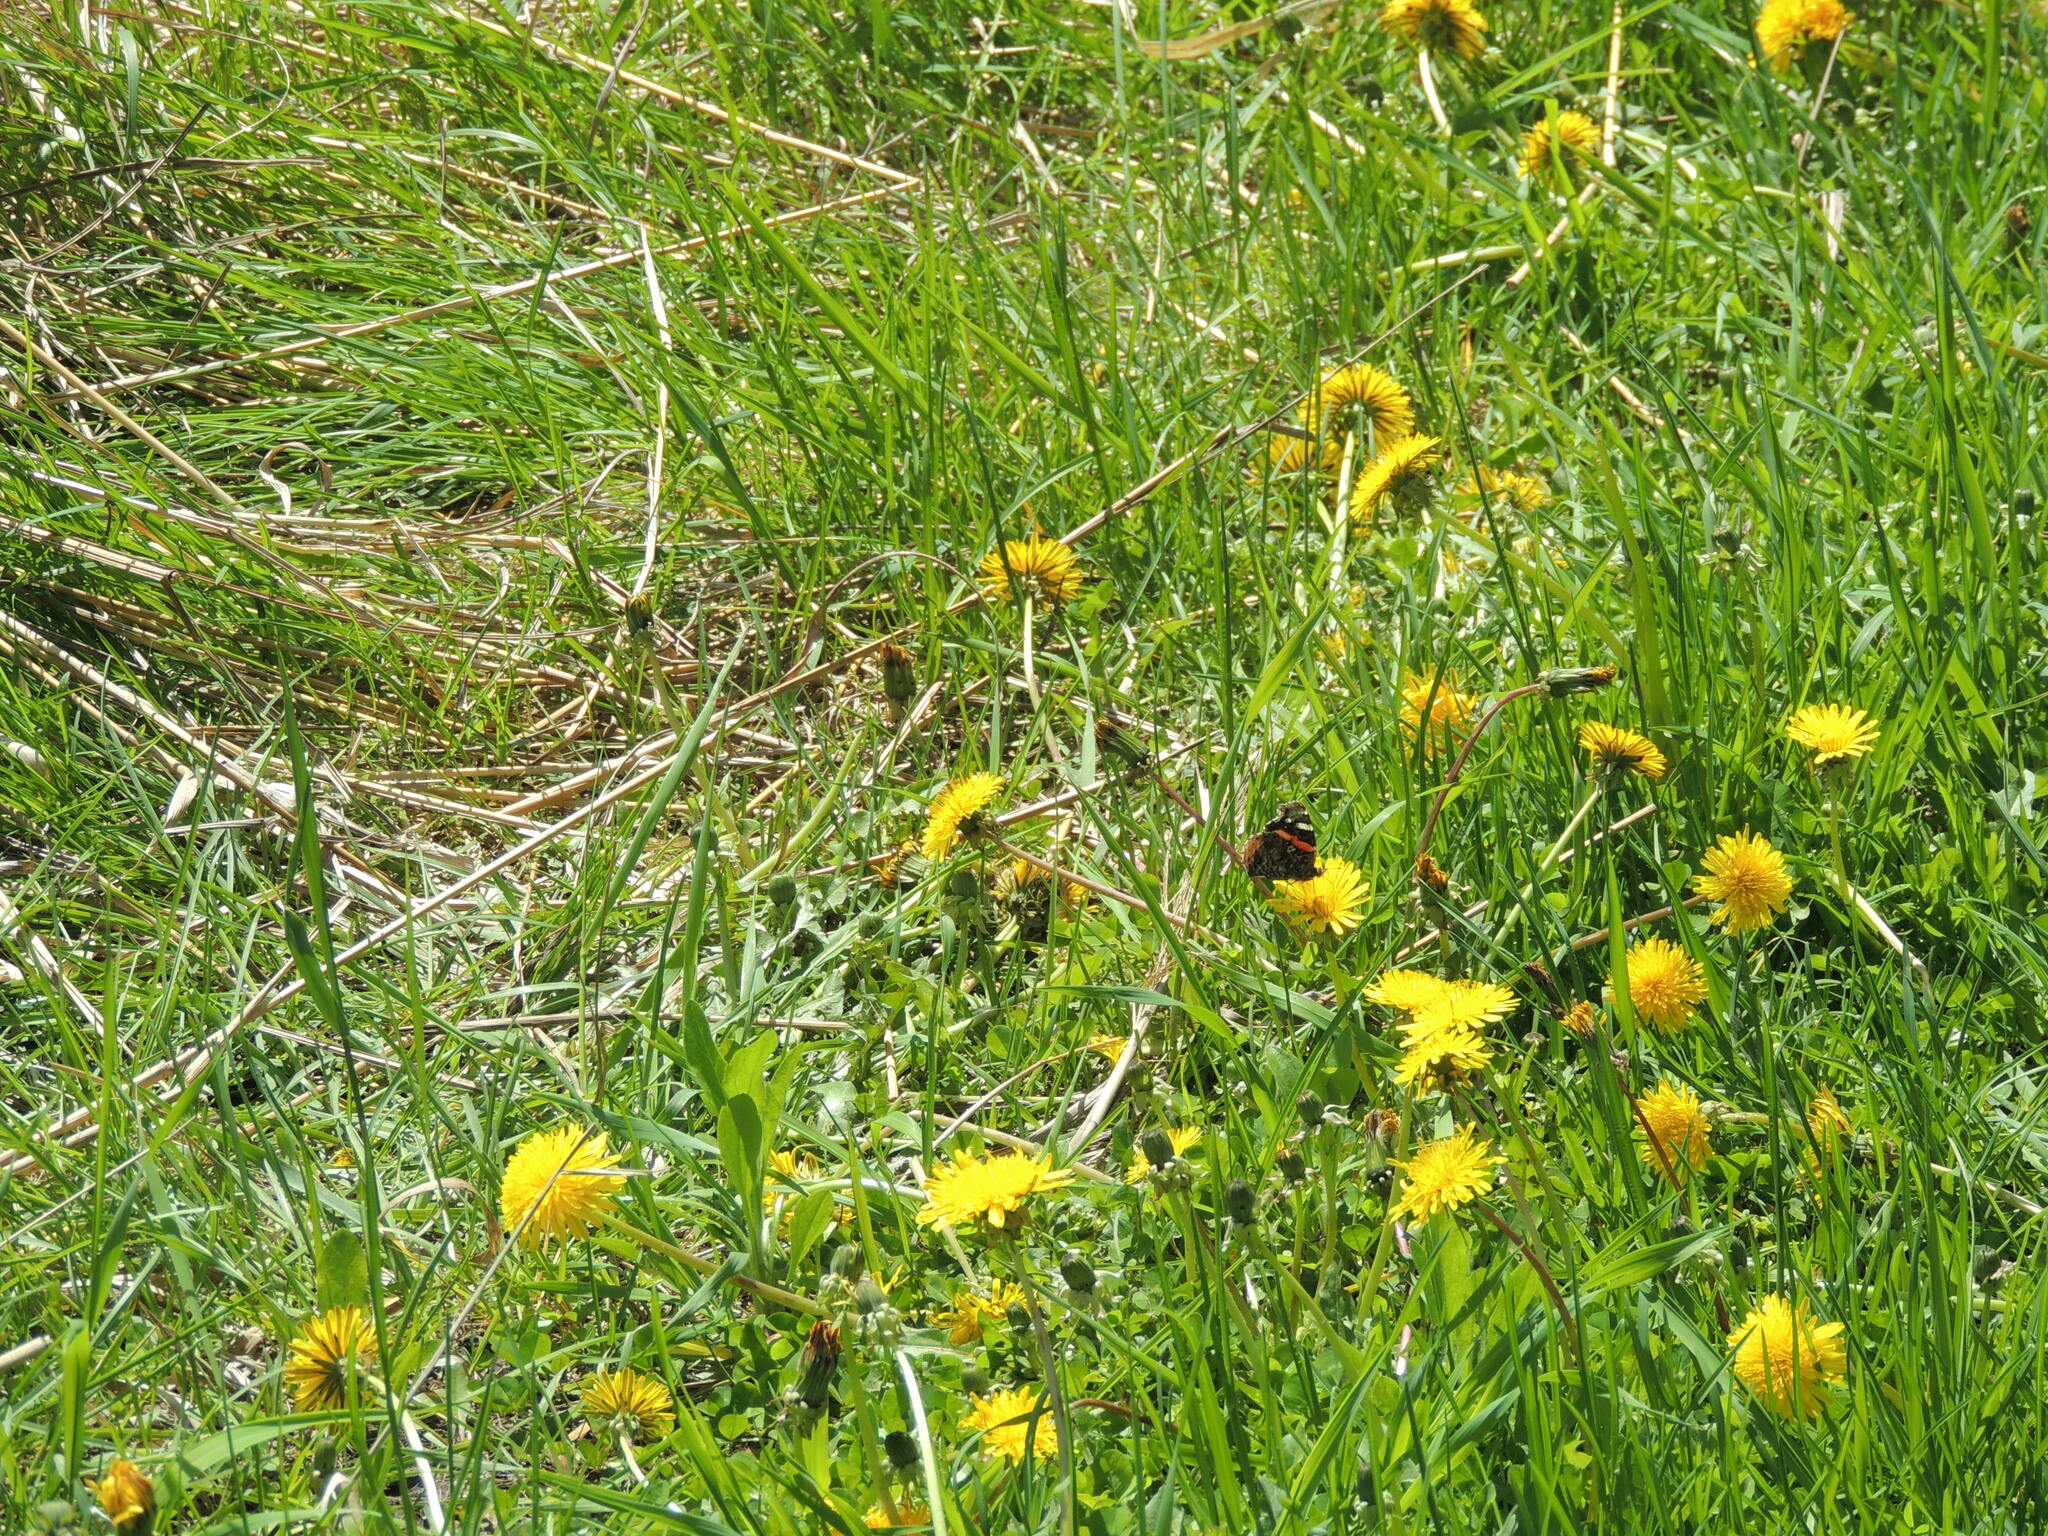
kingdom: Animalia
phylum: Arthropoda
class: Insecta
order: Lepidoptera
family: Nymphalidae
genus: Vanessa
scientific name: Vanessa atalanta
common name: Red admiral
